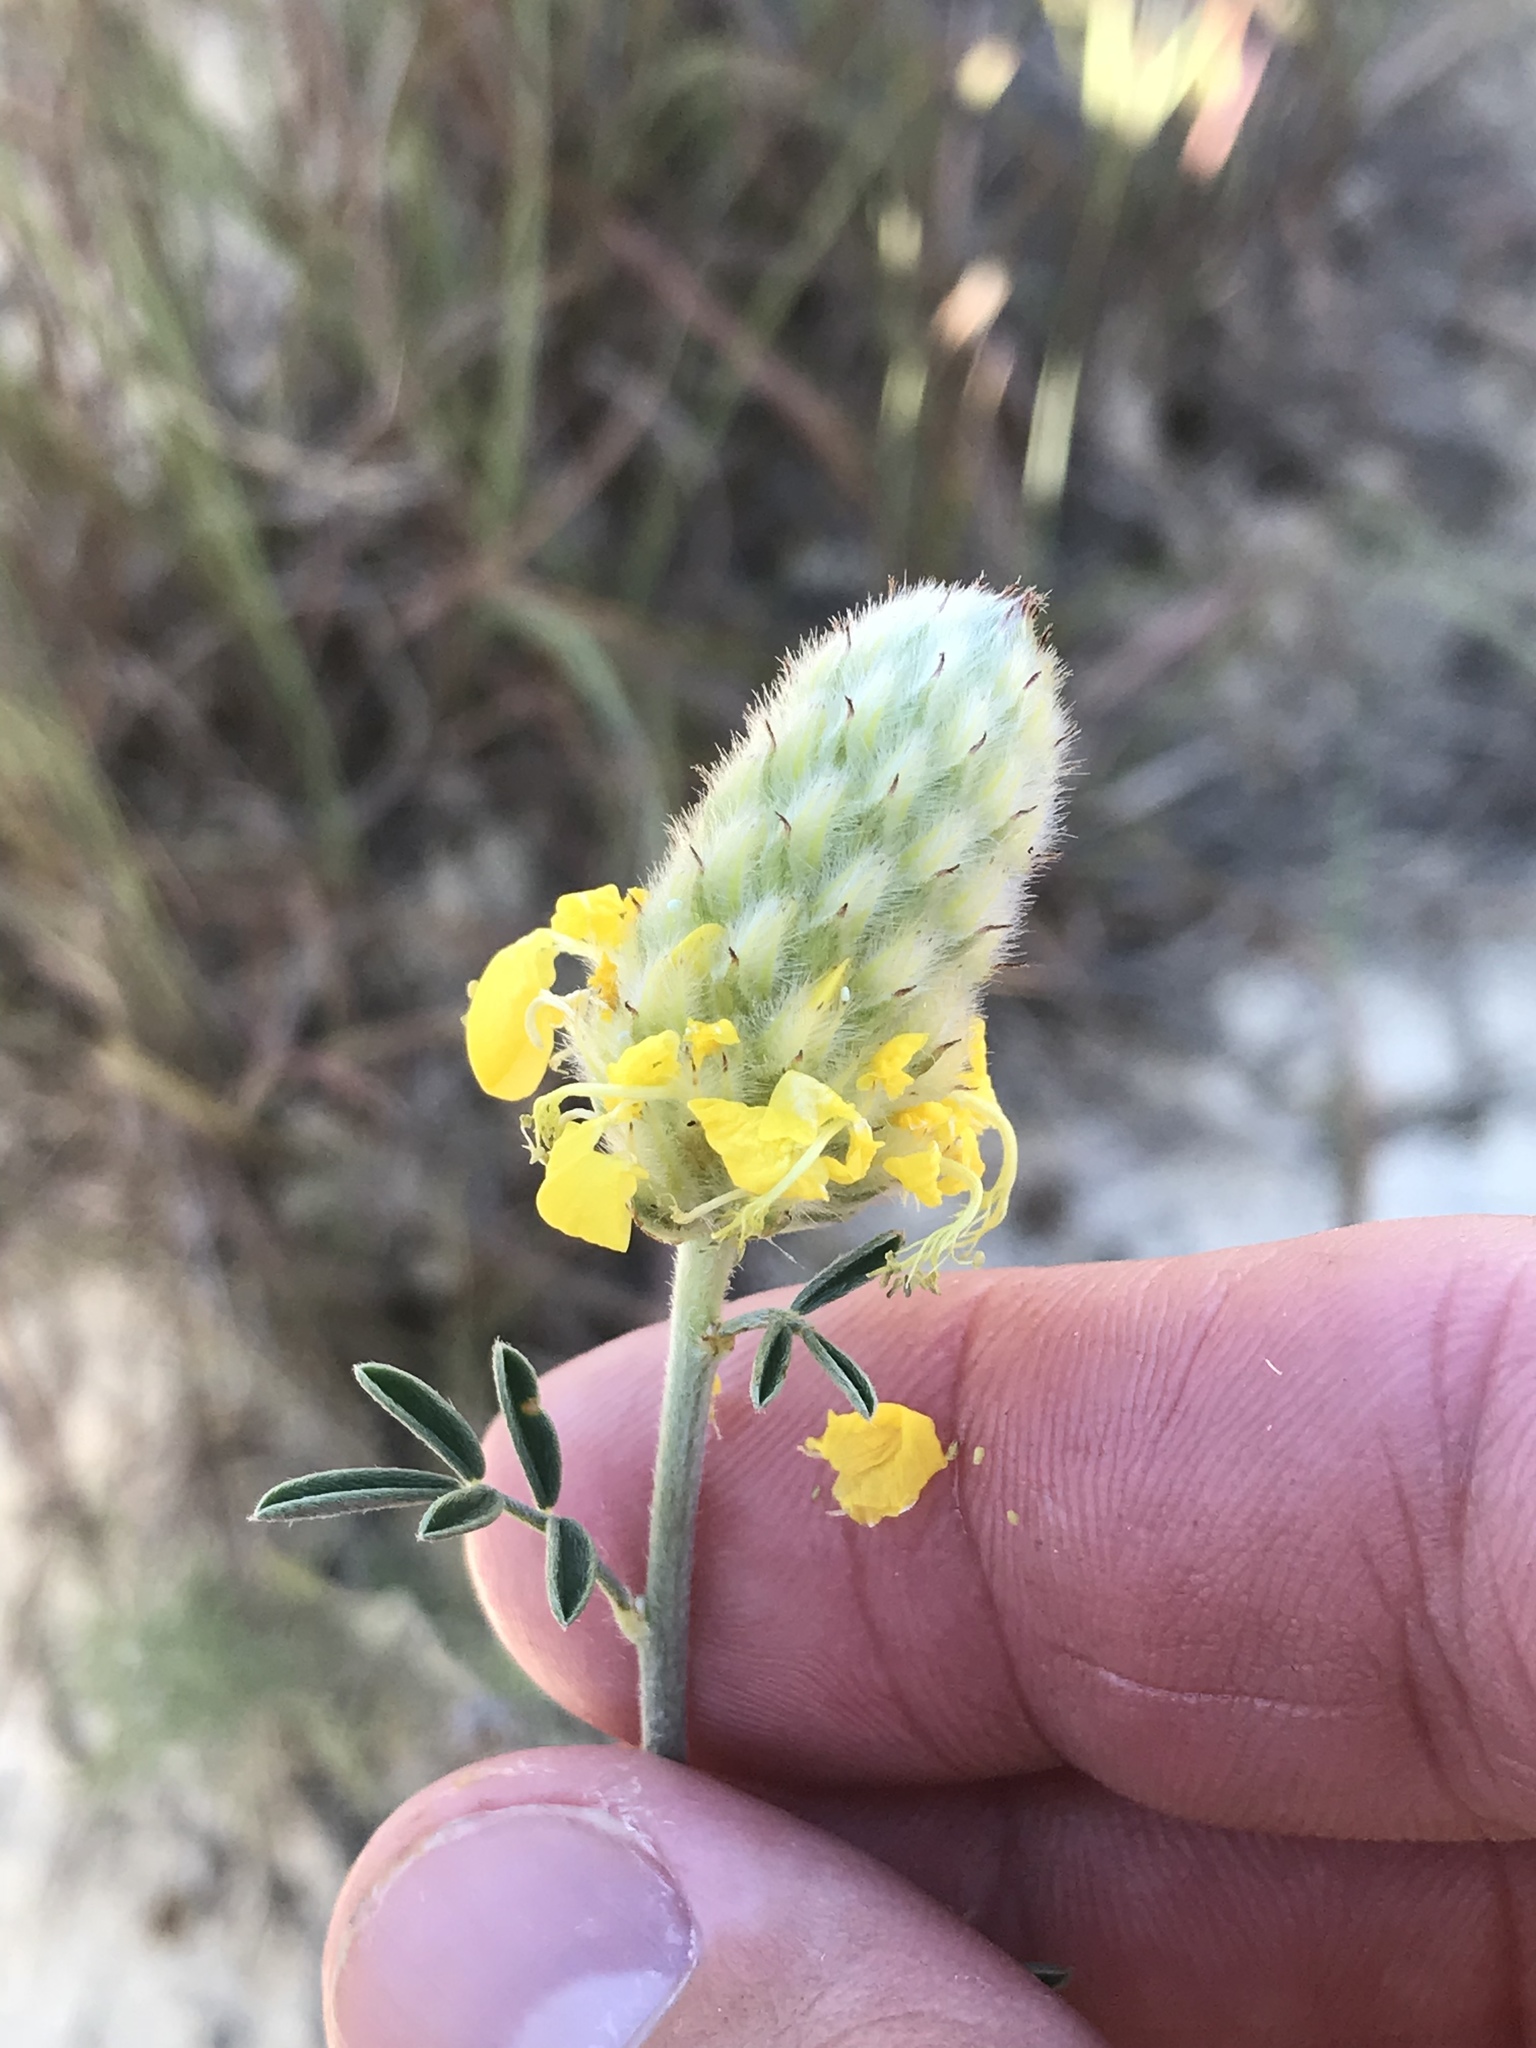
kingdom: Plantae
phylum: Tracheophyta
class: Magnoliopsida
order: Fabales
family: Fabaceae
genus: Dalea
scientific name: Dalea aurea
